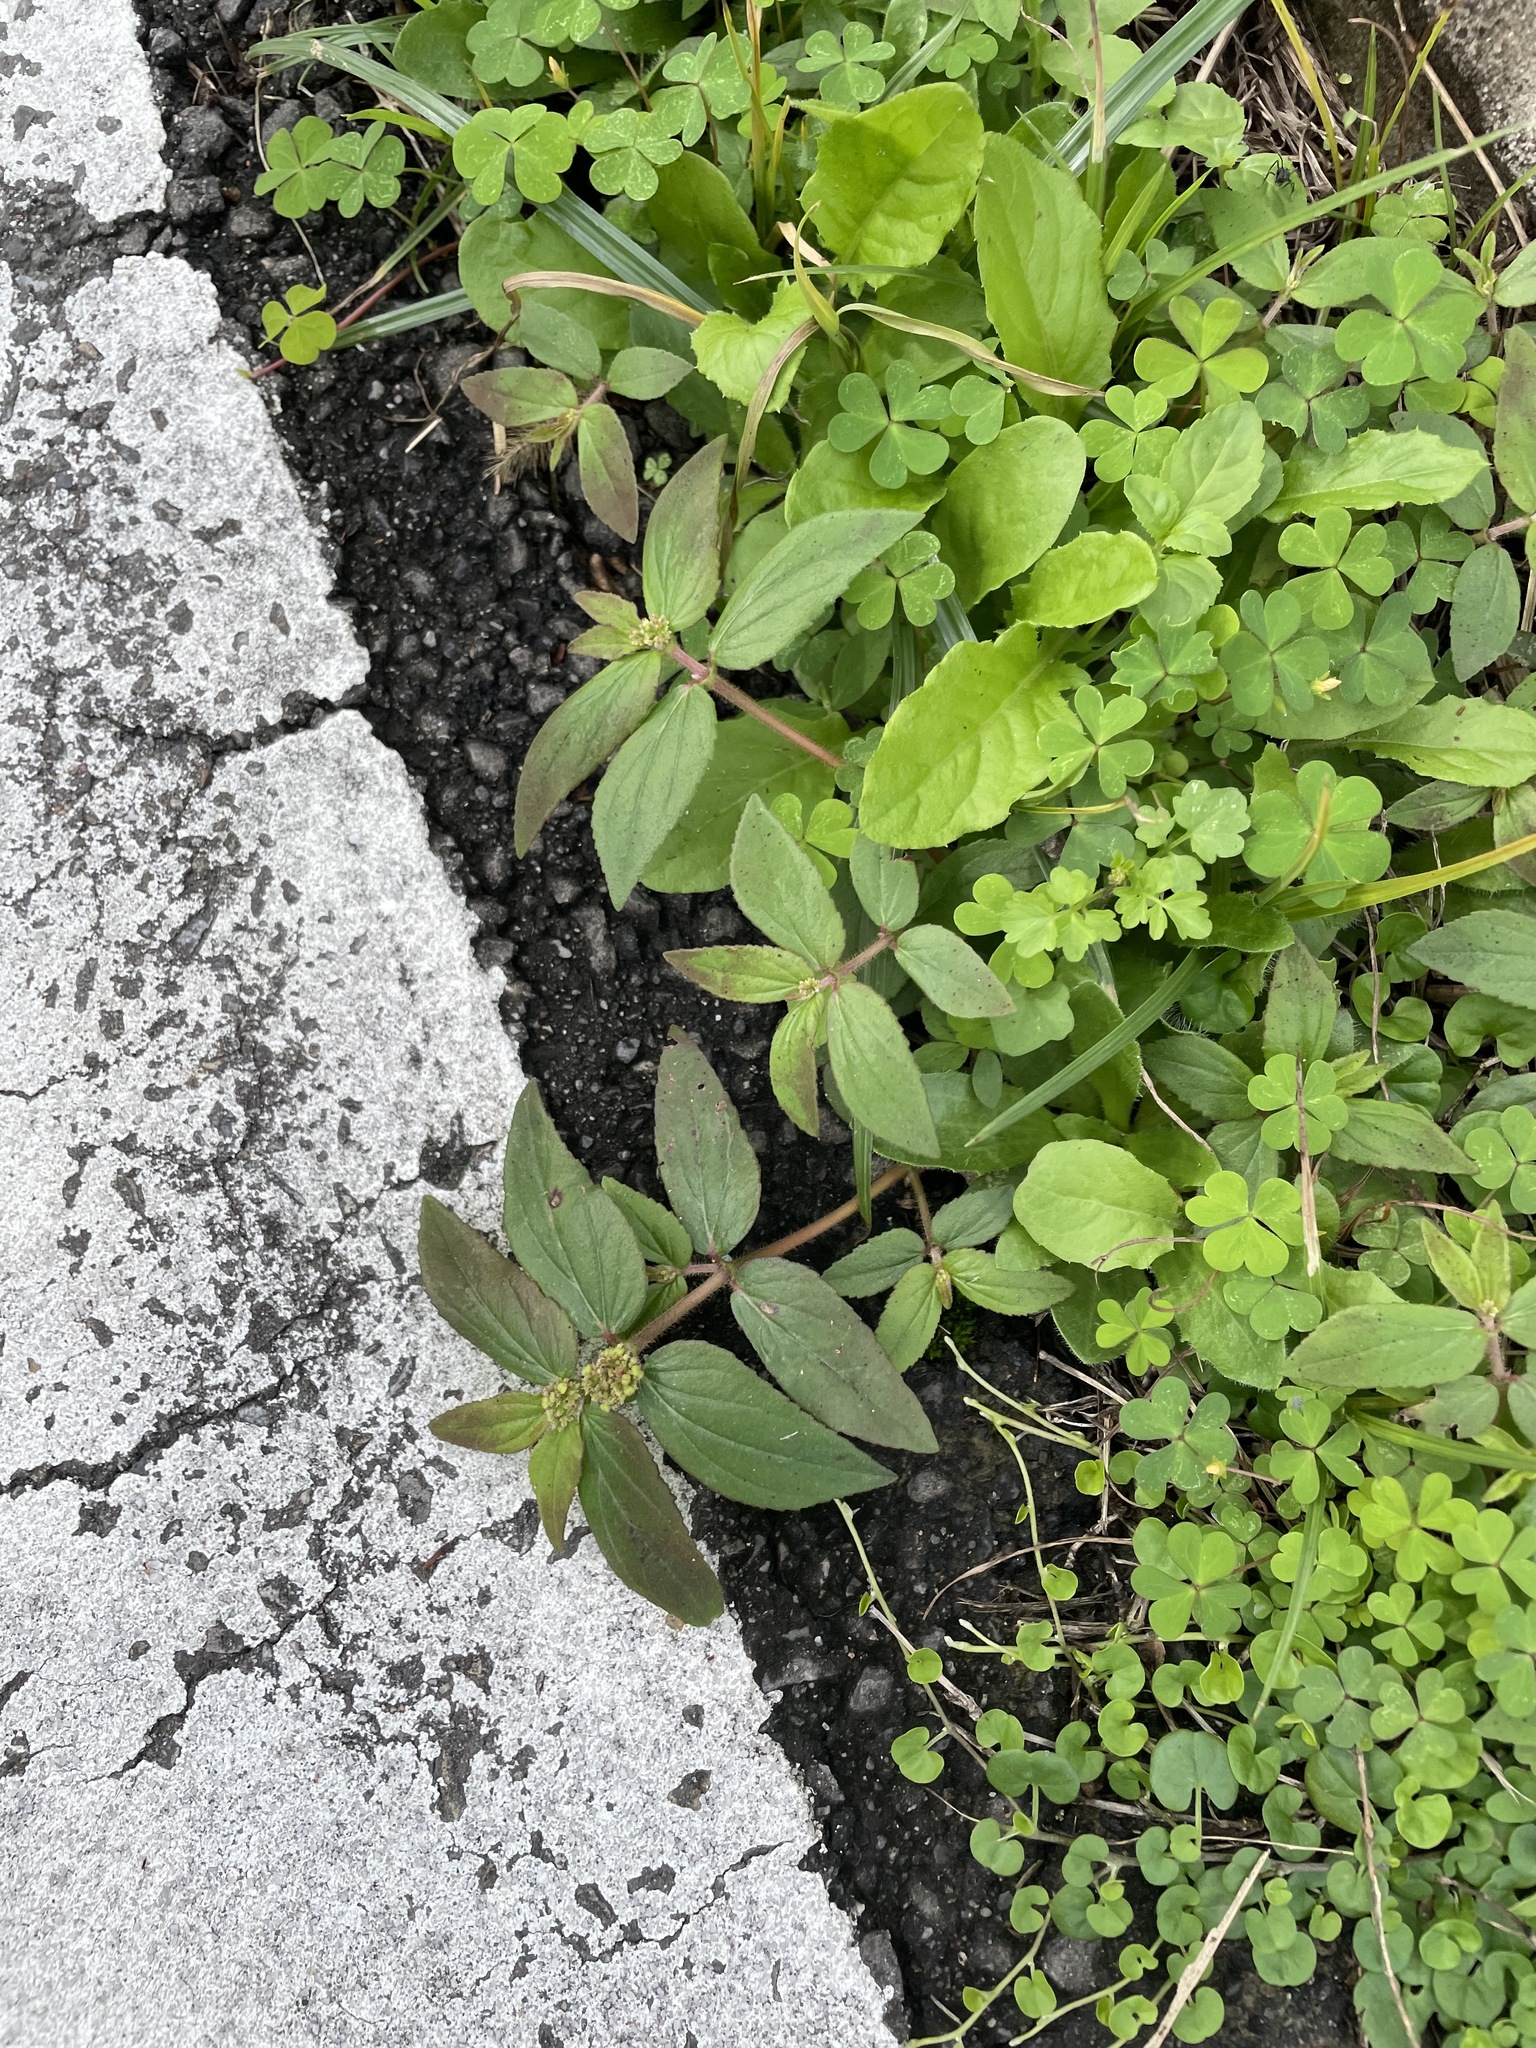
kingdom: Plantae
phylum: Tracheophyta
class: Magnoliopsida
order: Malpighiales
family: Euphorbiaceae
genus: Euphorbia
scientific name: Euphorbia hirta
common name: Pillpod sandmat
